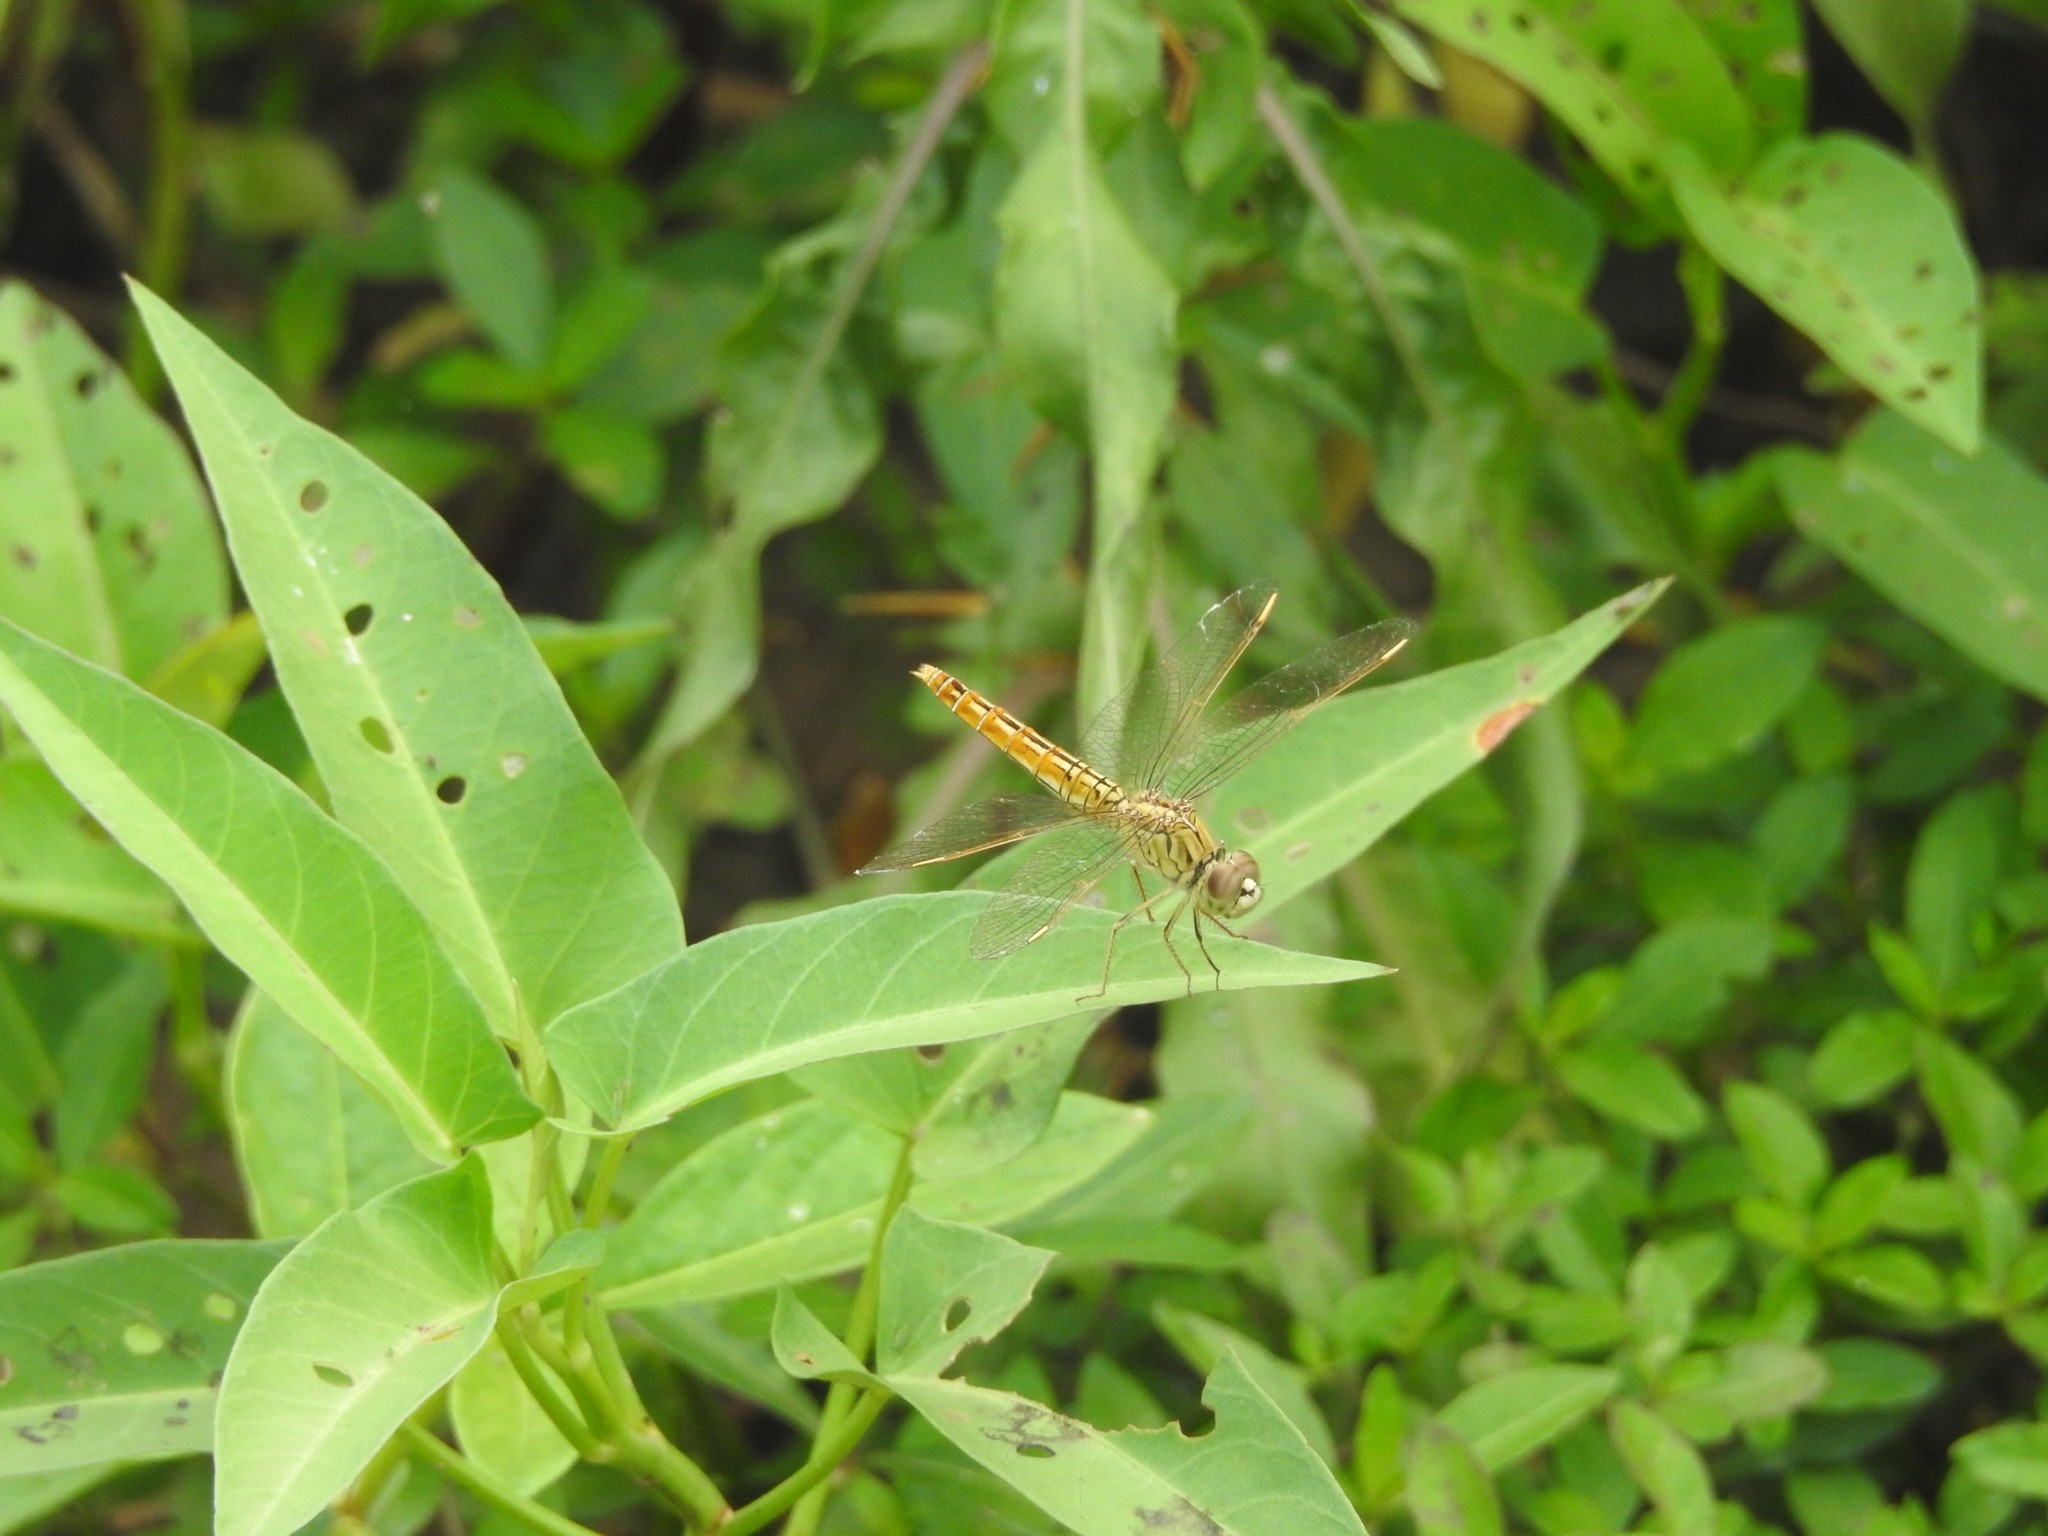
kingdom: Animalia
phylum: Arthropoda
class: Insecta
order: Odonata
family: Libellulidae
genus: Brachythemis
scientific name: Brachythemis contaminata
